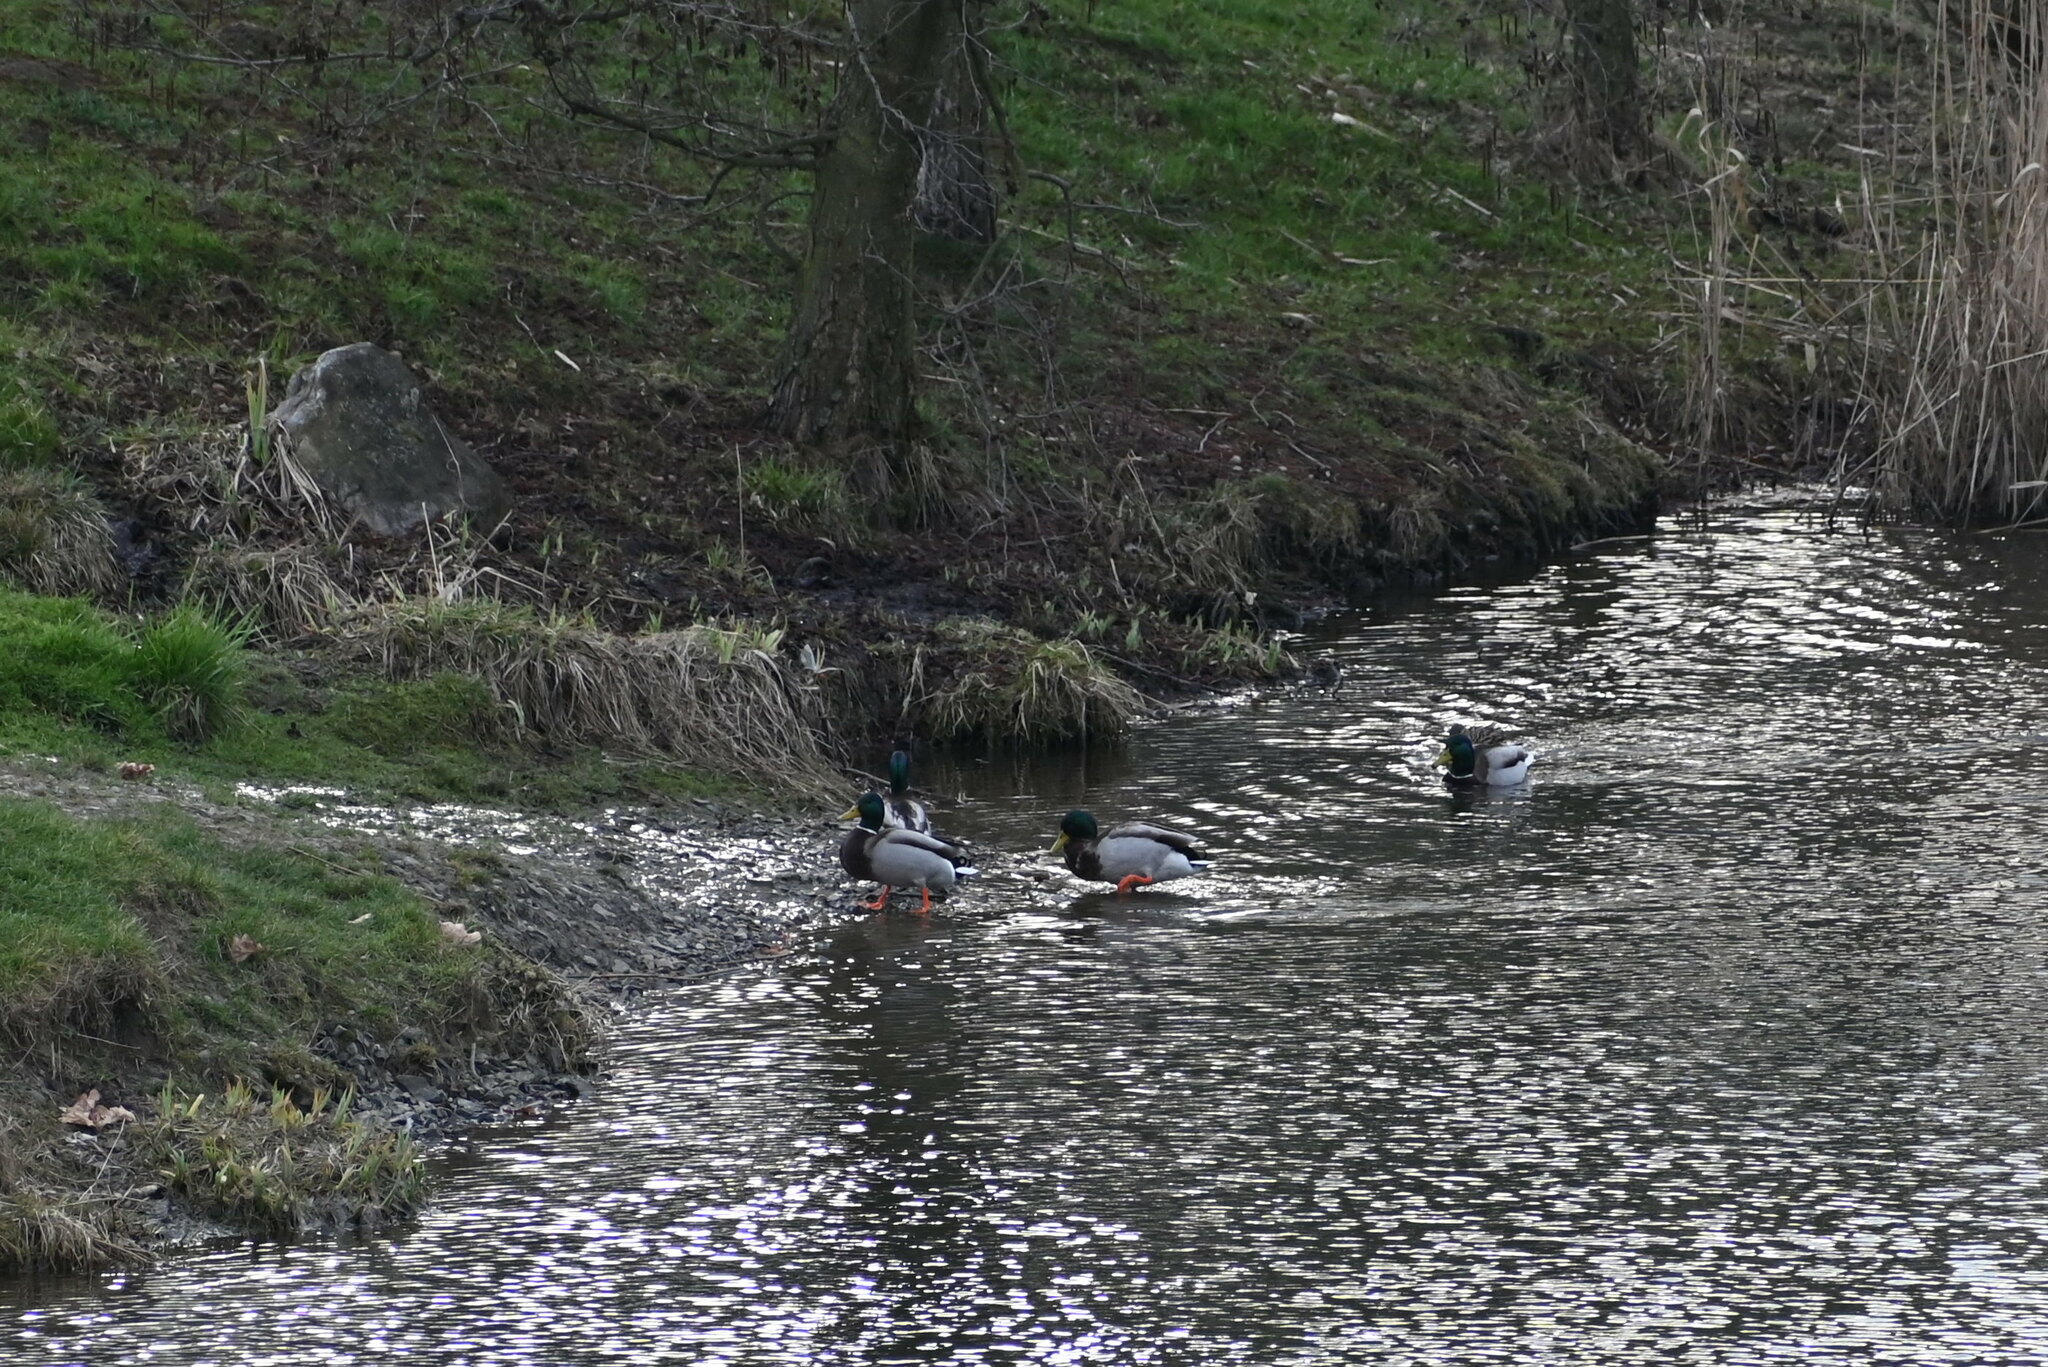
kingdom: Animalia
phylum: Chordata
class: Aves
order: Anseriformes
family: Anatidae
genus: Anas
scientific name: Anas platyrhynchos
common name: Mallard
